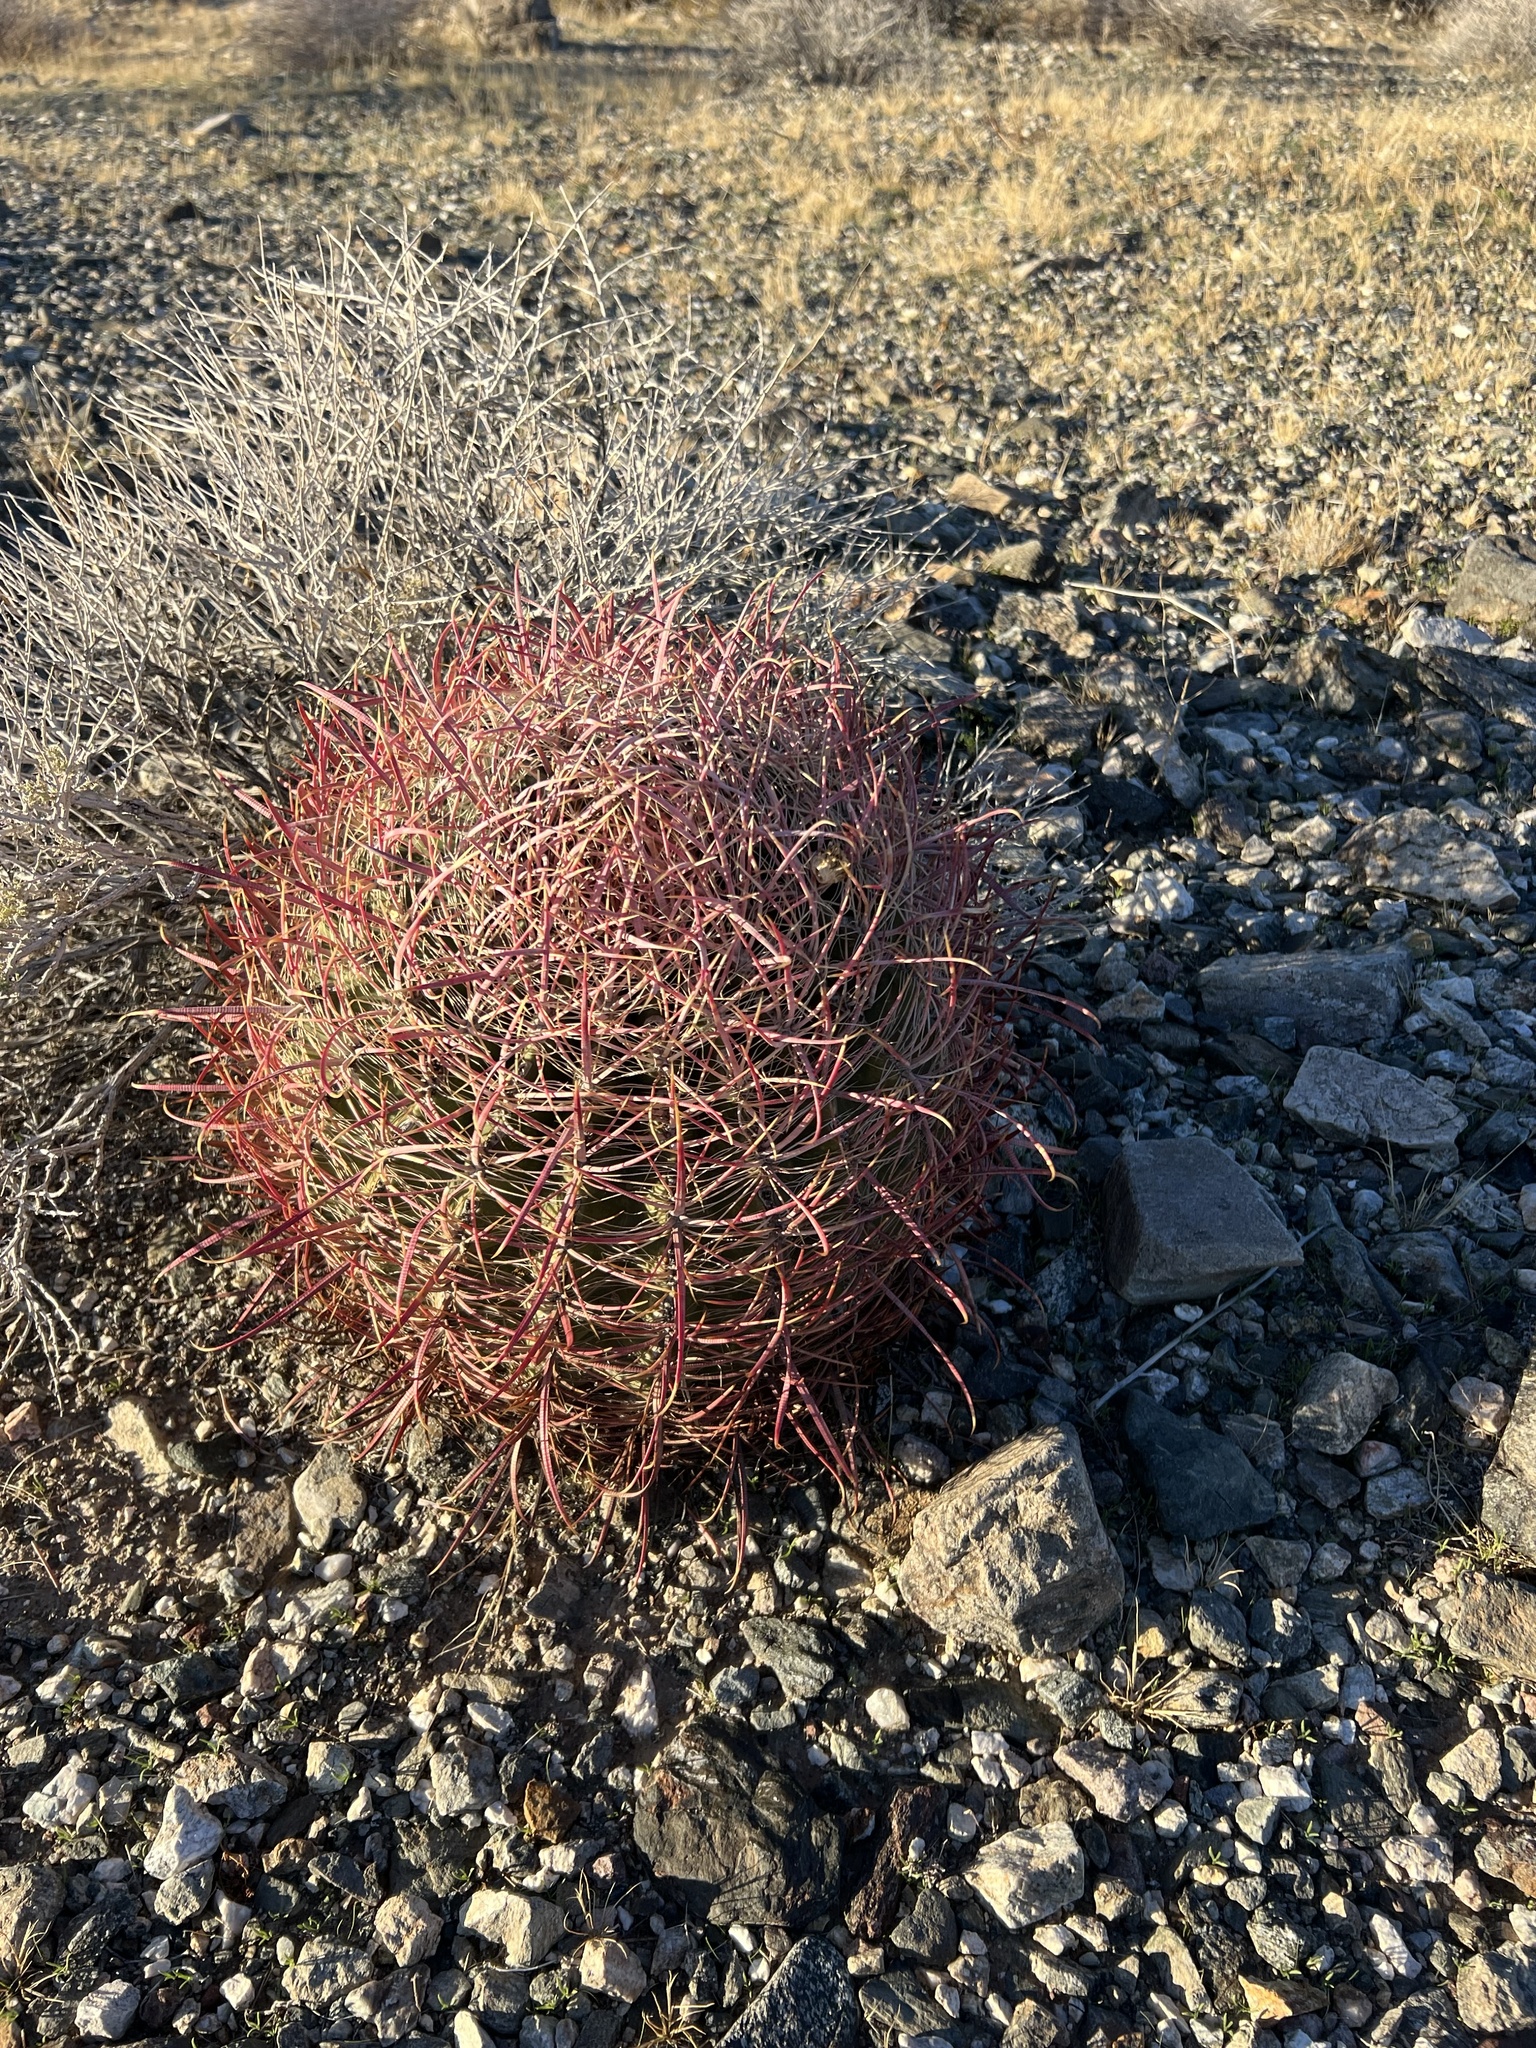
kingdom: Plantae
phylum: Tracheophyta
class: Magnoliopsida
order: Caryophyllales
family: Cactaceae
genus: Ferocactus
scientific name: Ferocactus cylindraceus
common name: California barrel cactus
